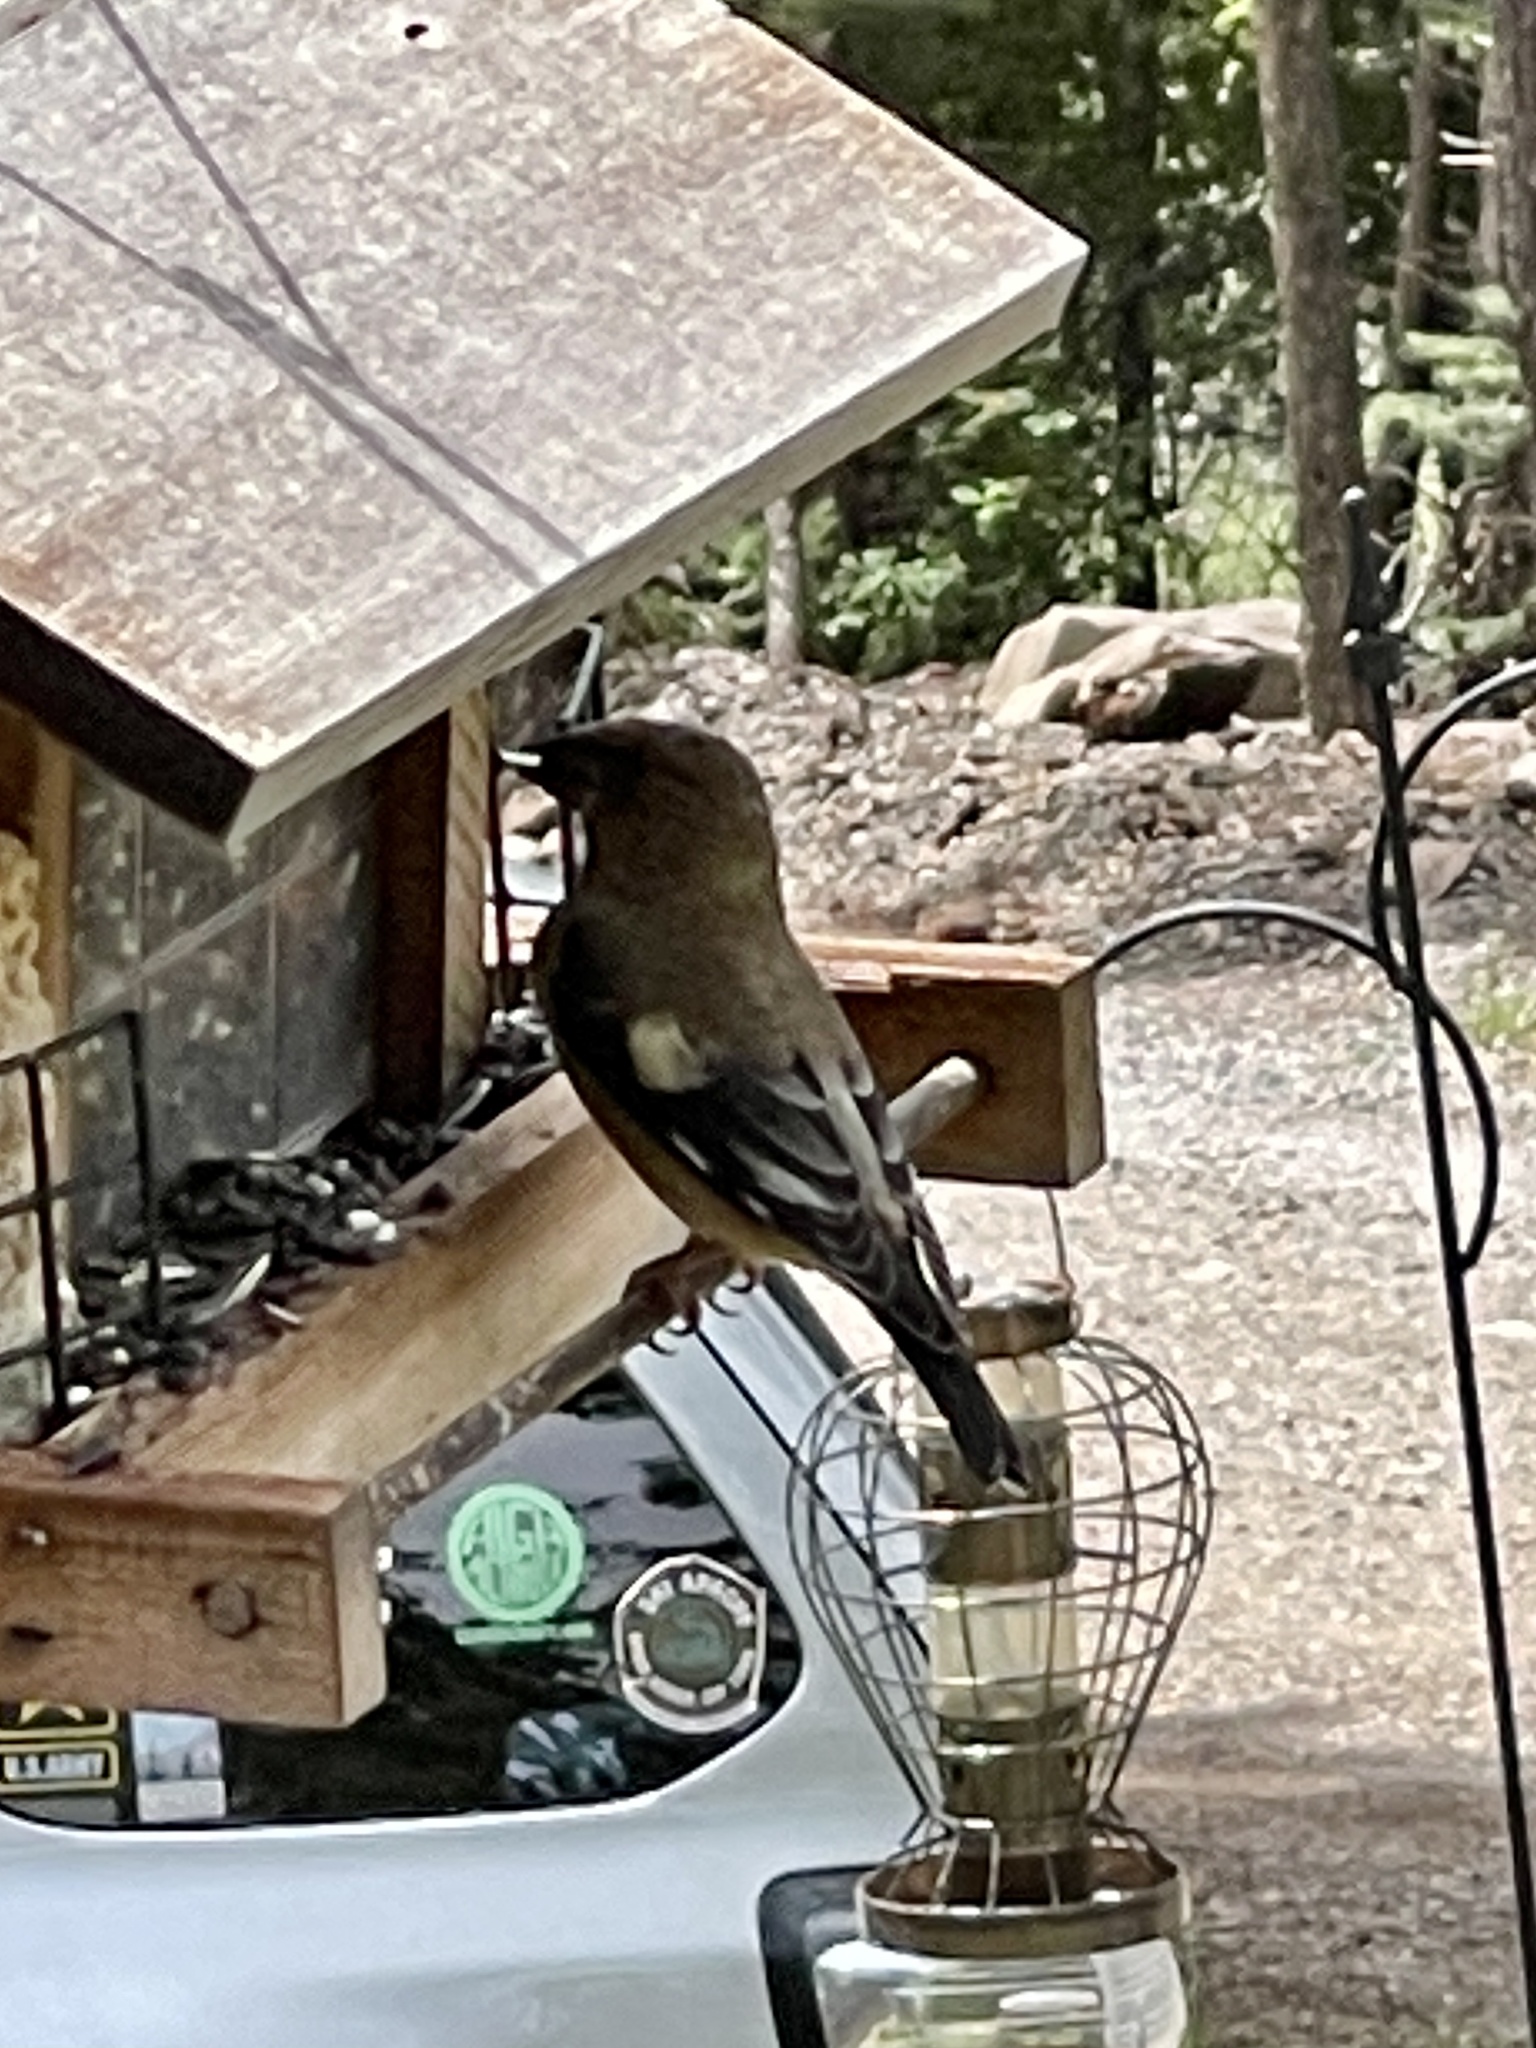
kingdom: Animalia
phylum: Chordata
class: Aves
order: Passeriformes
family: Fringillidae
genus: Hesperiphona
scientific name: Hesperiphona vespertina
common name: Evening grosbeak
